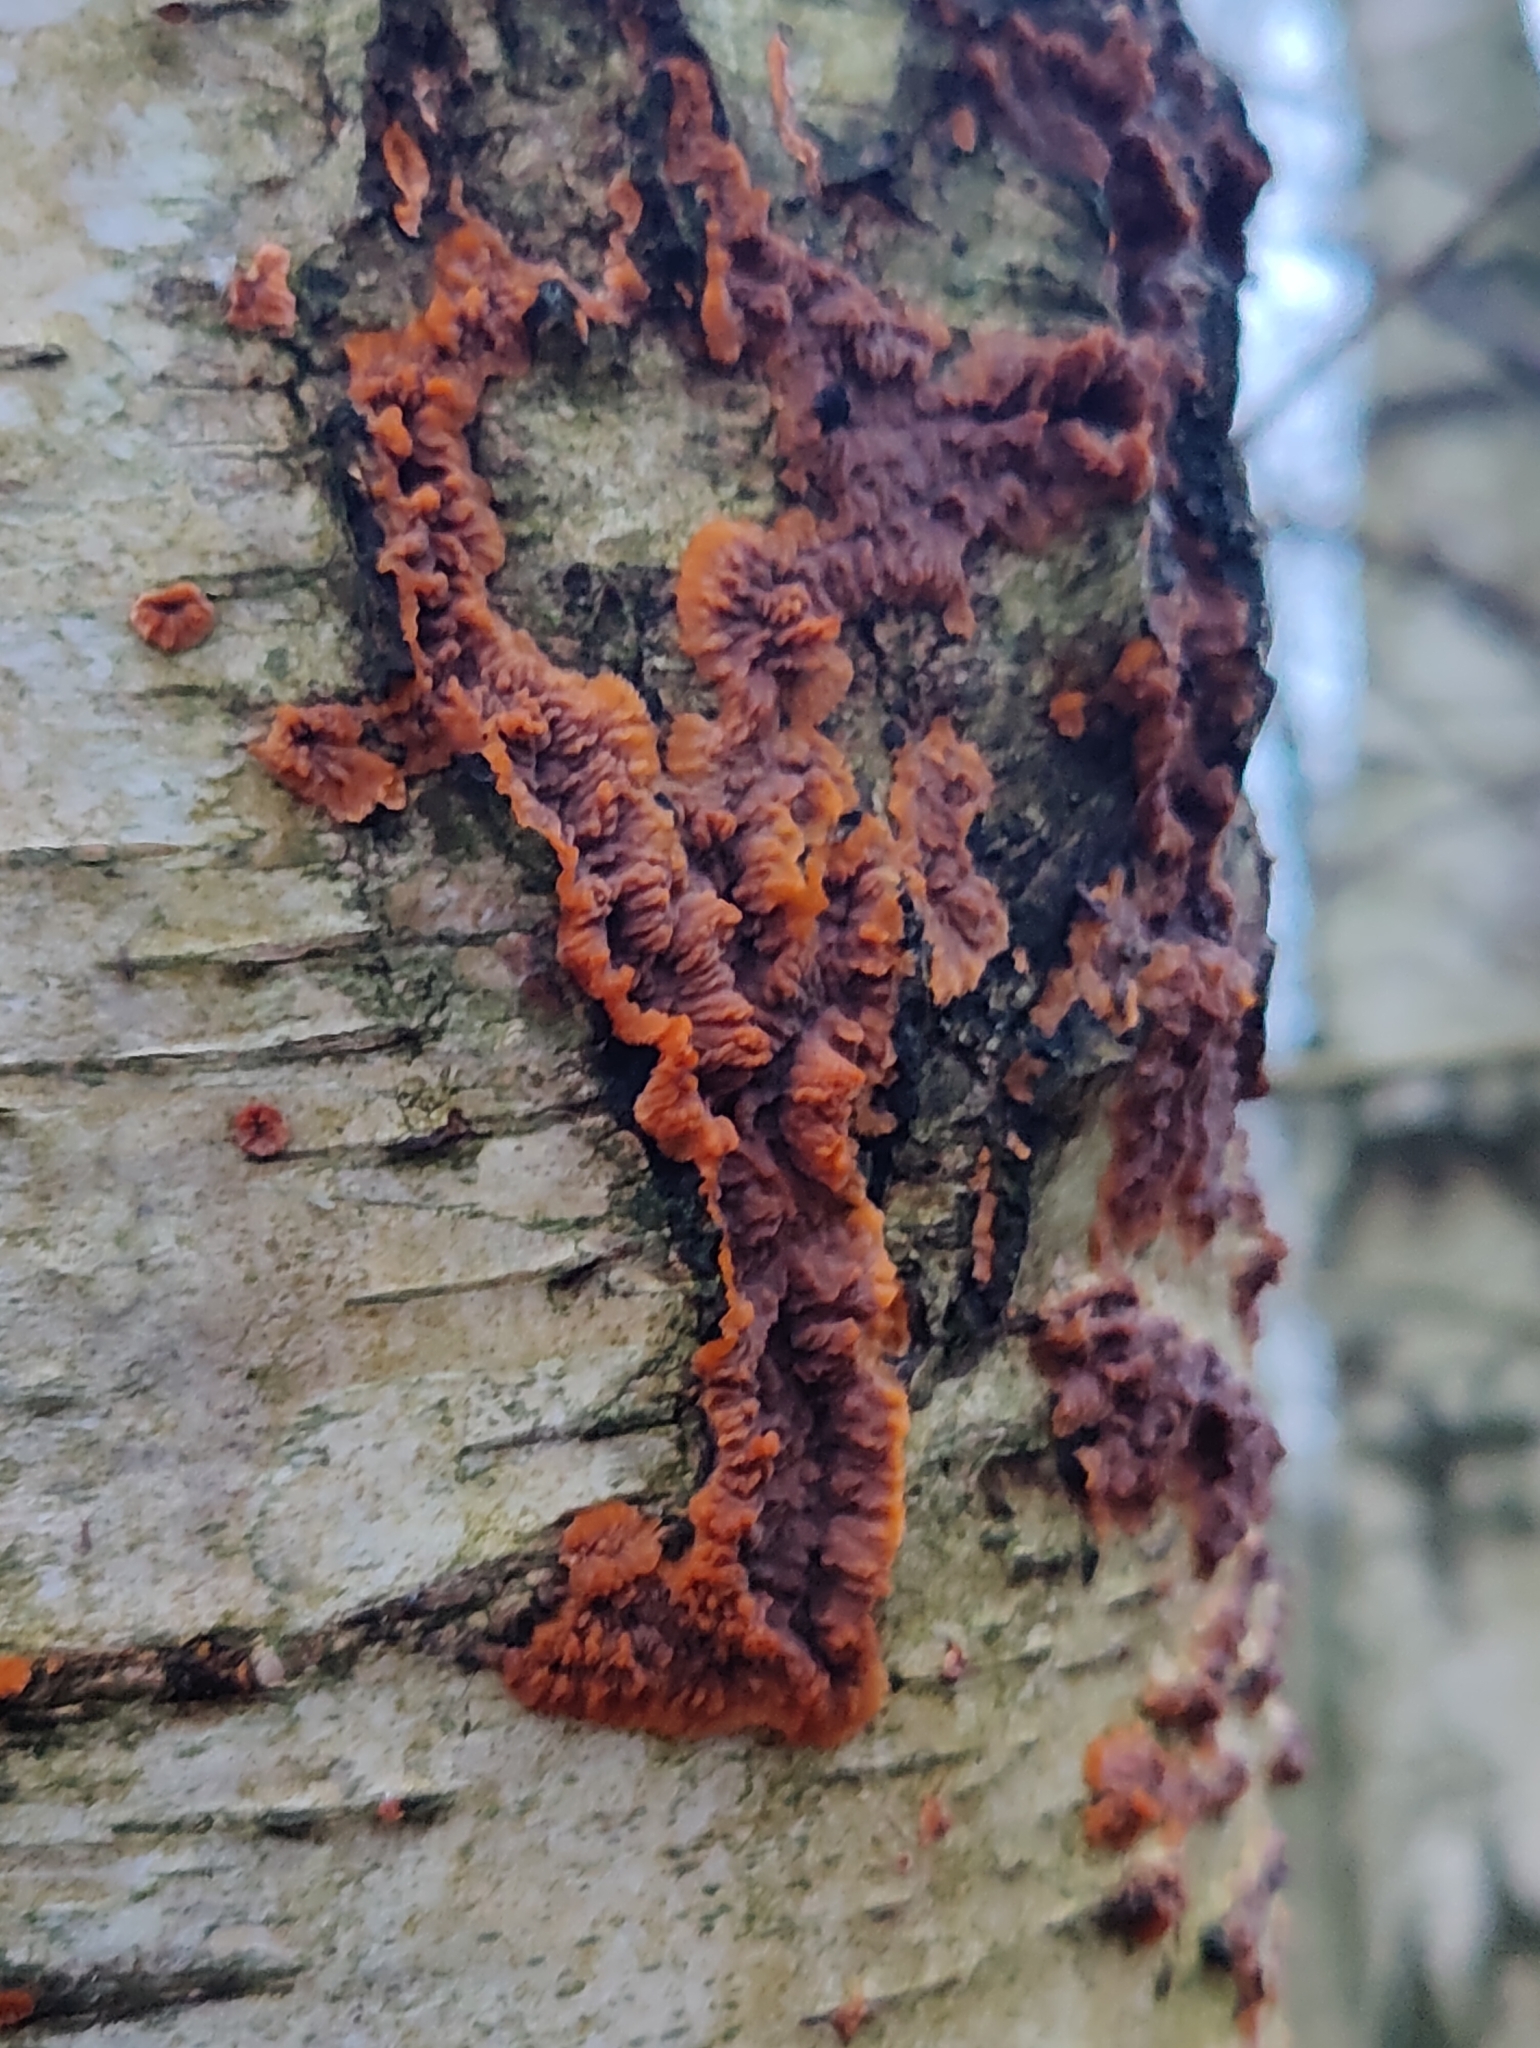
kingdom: Fungi
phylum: Basidiomycota
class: Agaricomycetes
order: Polyporales
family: Meruliaceae
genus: Phlebia
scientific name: Phlebia radiata
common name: Wrinkled crust
